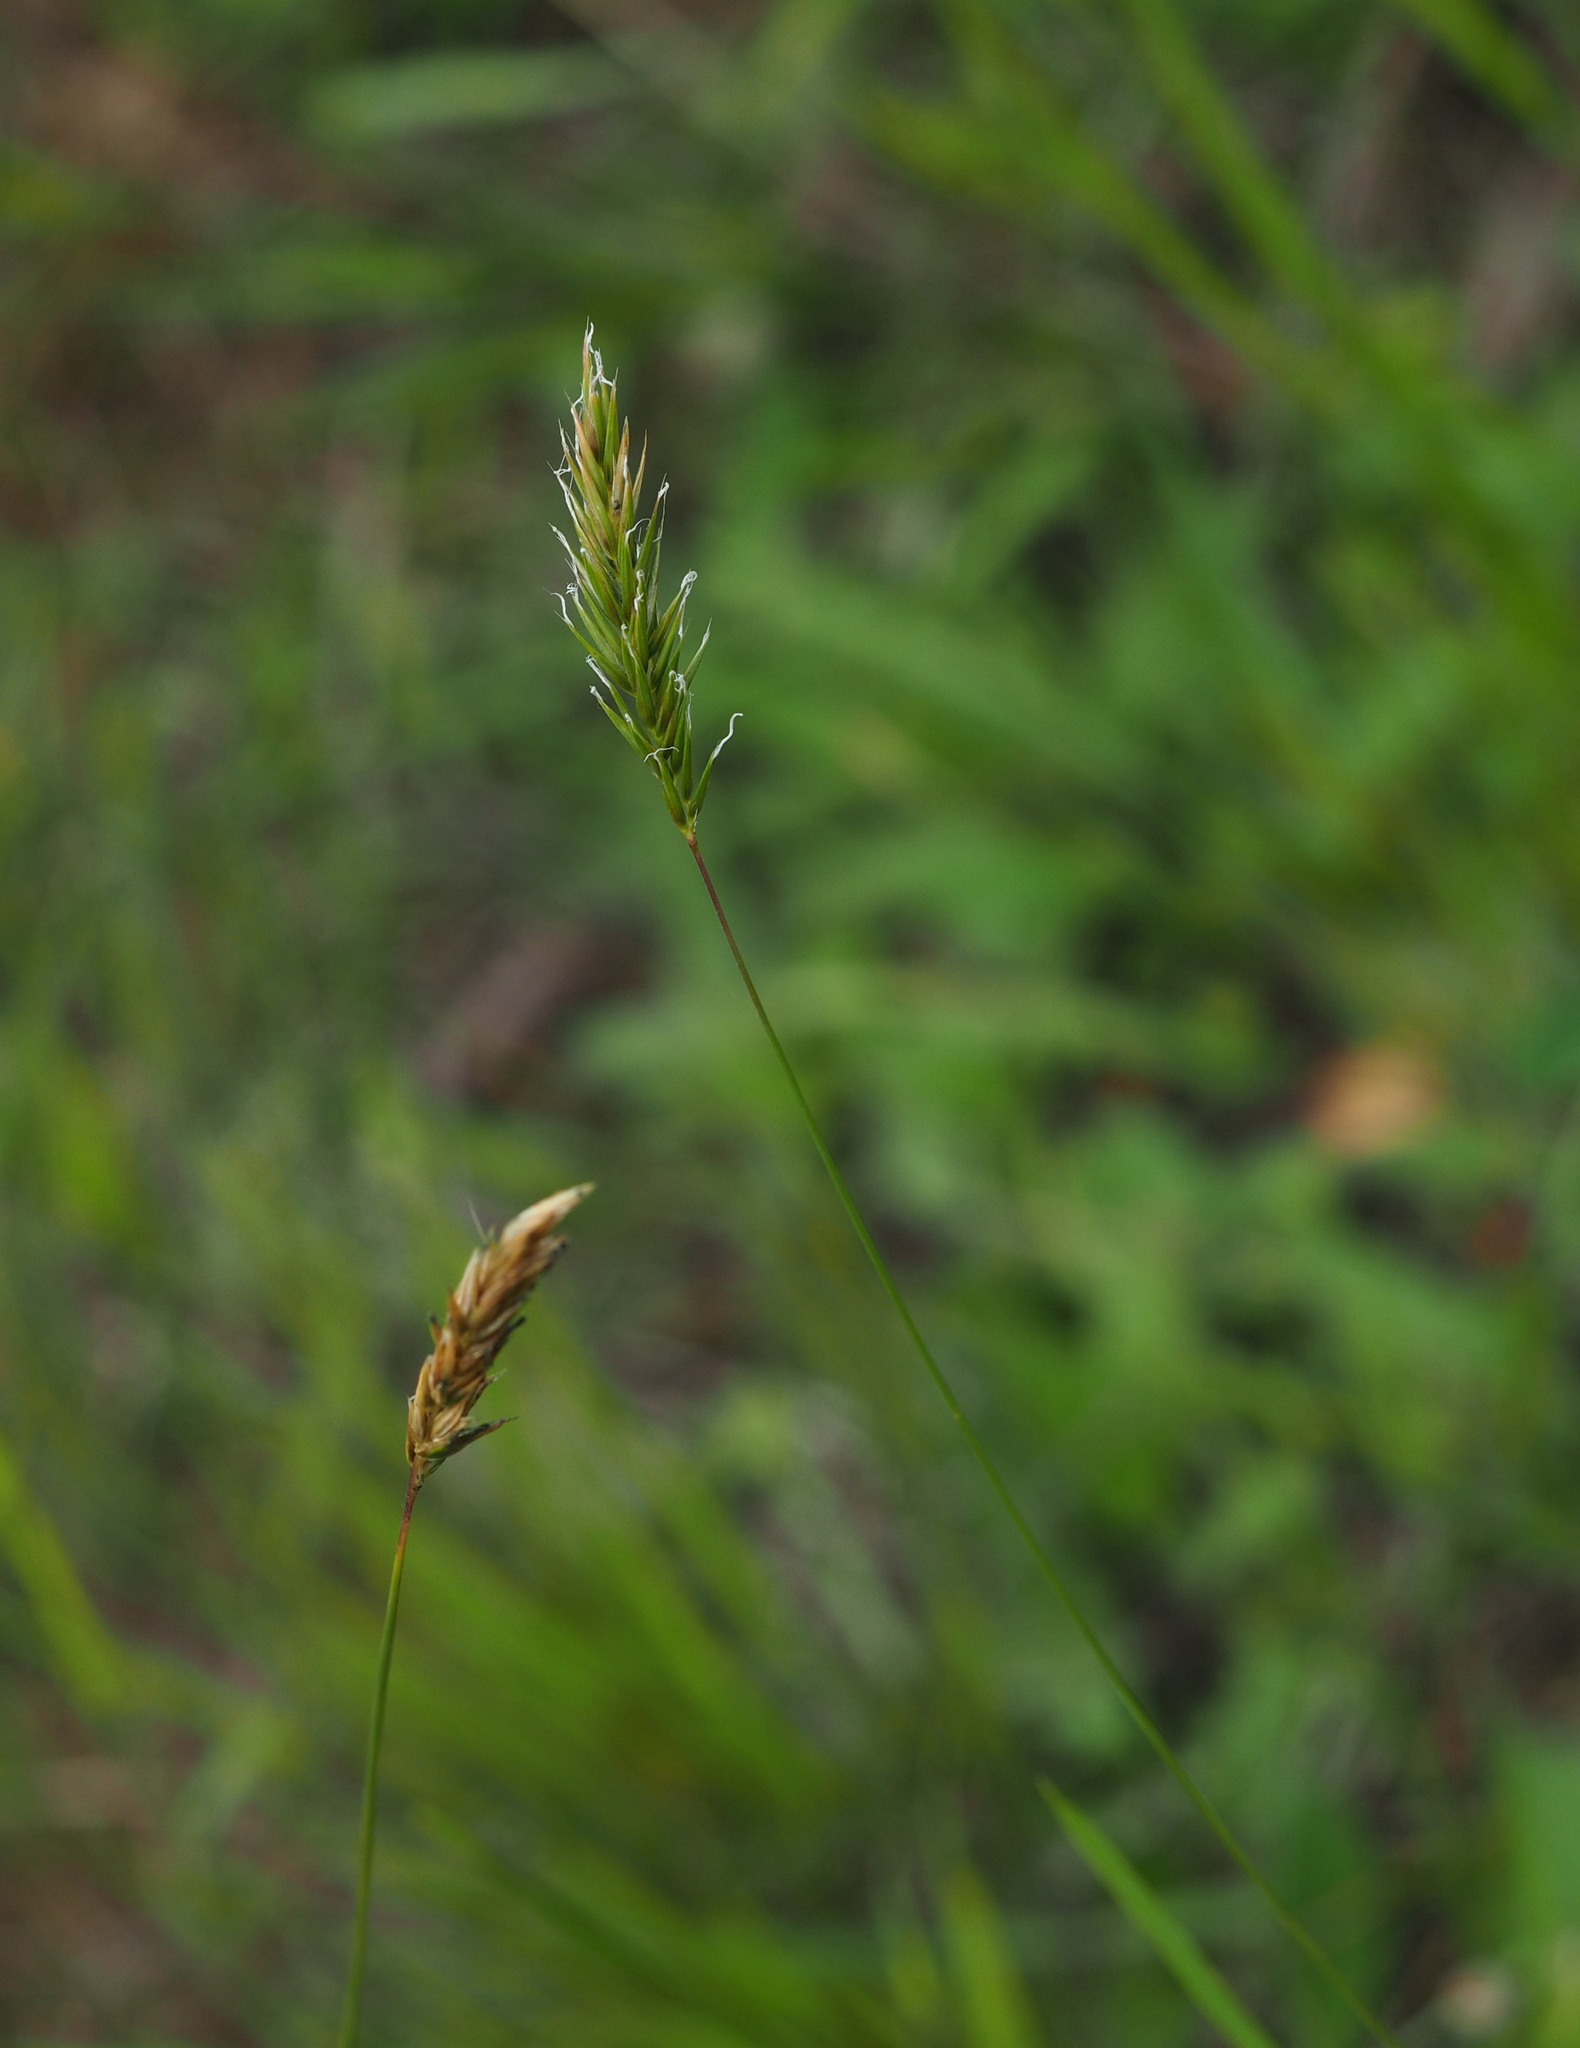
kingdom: Plantae
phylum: Tracheophyta
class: Liliopsida
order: Poales
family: Poaceae
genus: Anthoxanthum
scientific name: Anthoxanthum odoratum
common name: Sweet vernalgrass
